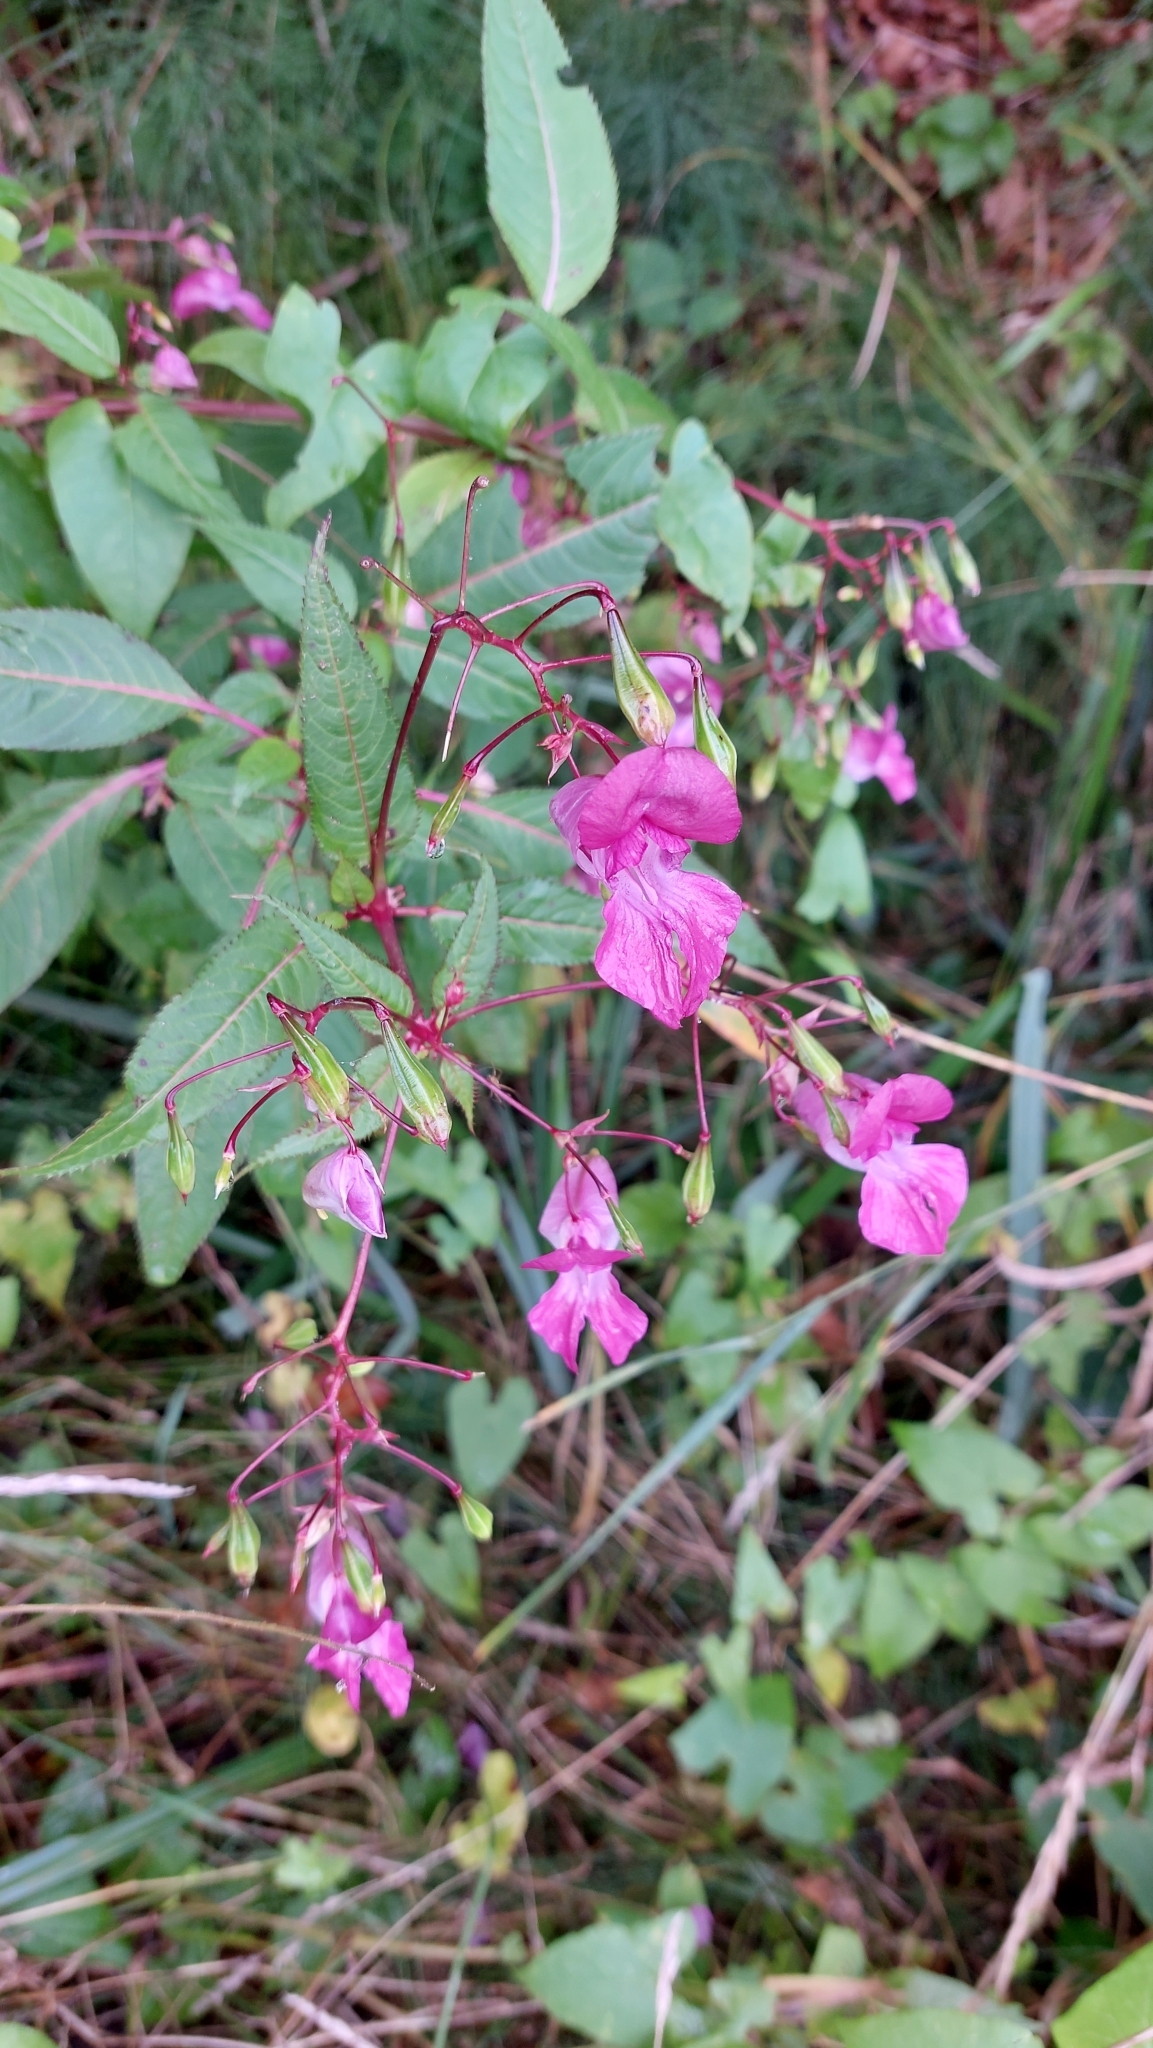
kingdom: Plantae
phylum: Tracheophyta
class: Magnoliopsida
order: Ericales
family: Balsaminaceae
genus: Impatiens
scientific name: Impatiens glandulifera
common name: Himalayan balsam
